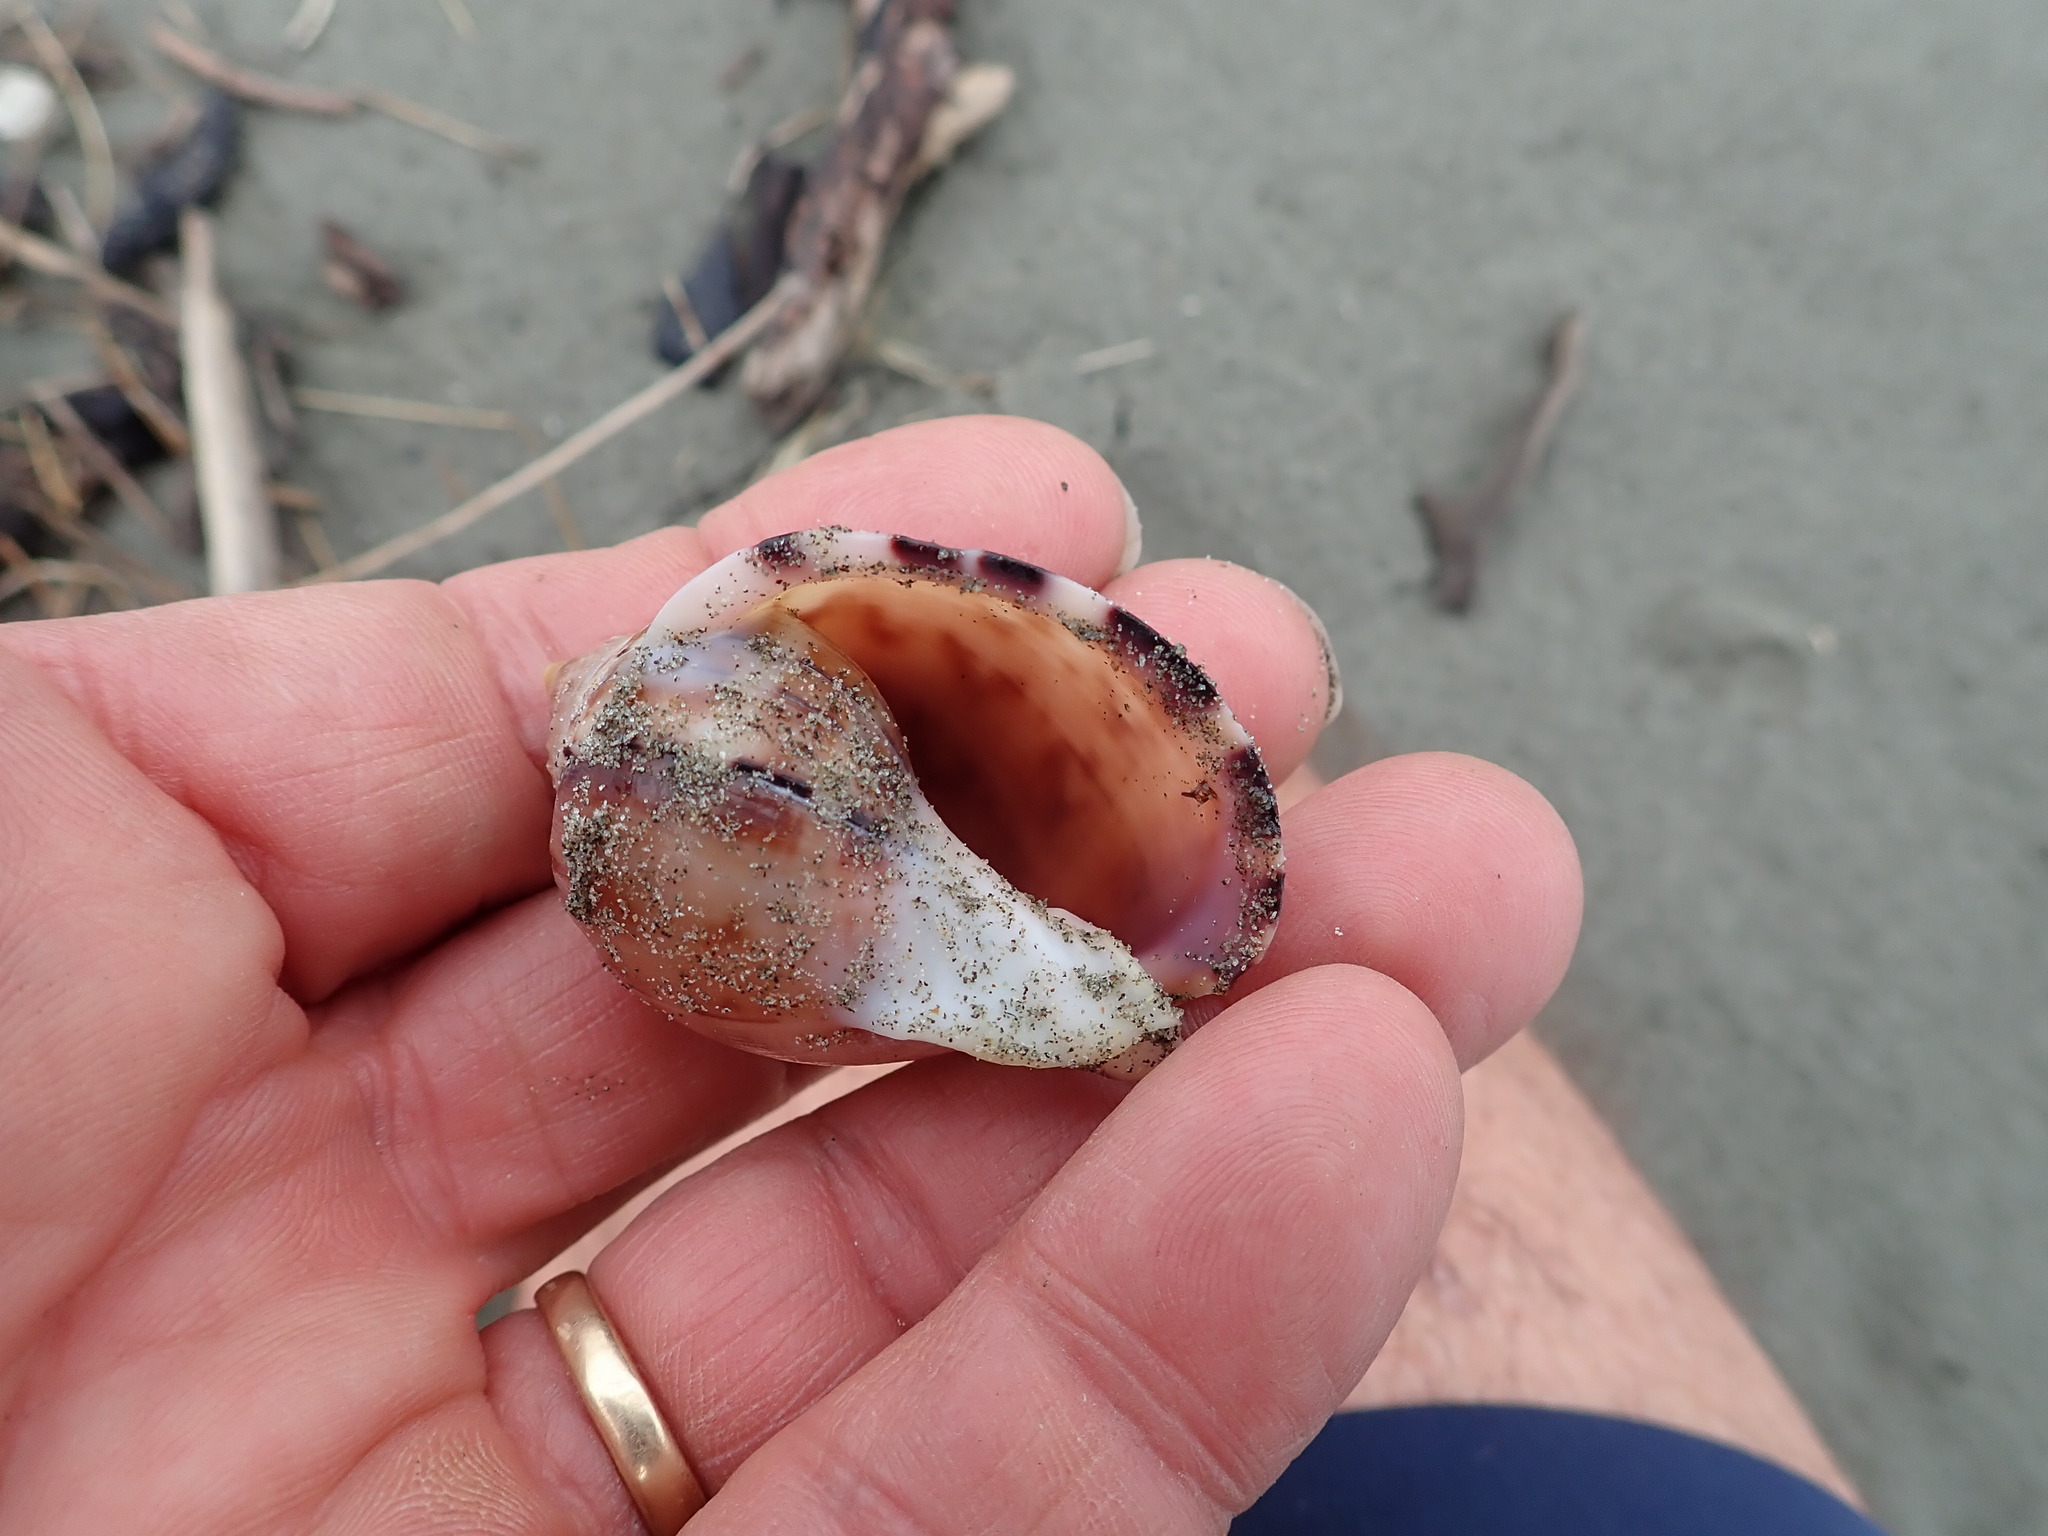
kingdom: Animalia
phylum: Mollusca
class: Gastropoda
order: Littorinimorpha
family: Cassidae
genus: Semicassis
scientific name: Semicassis pyrum
